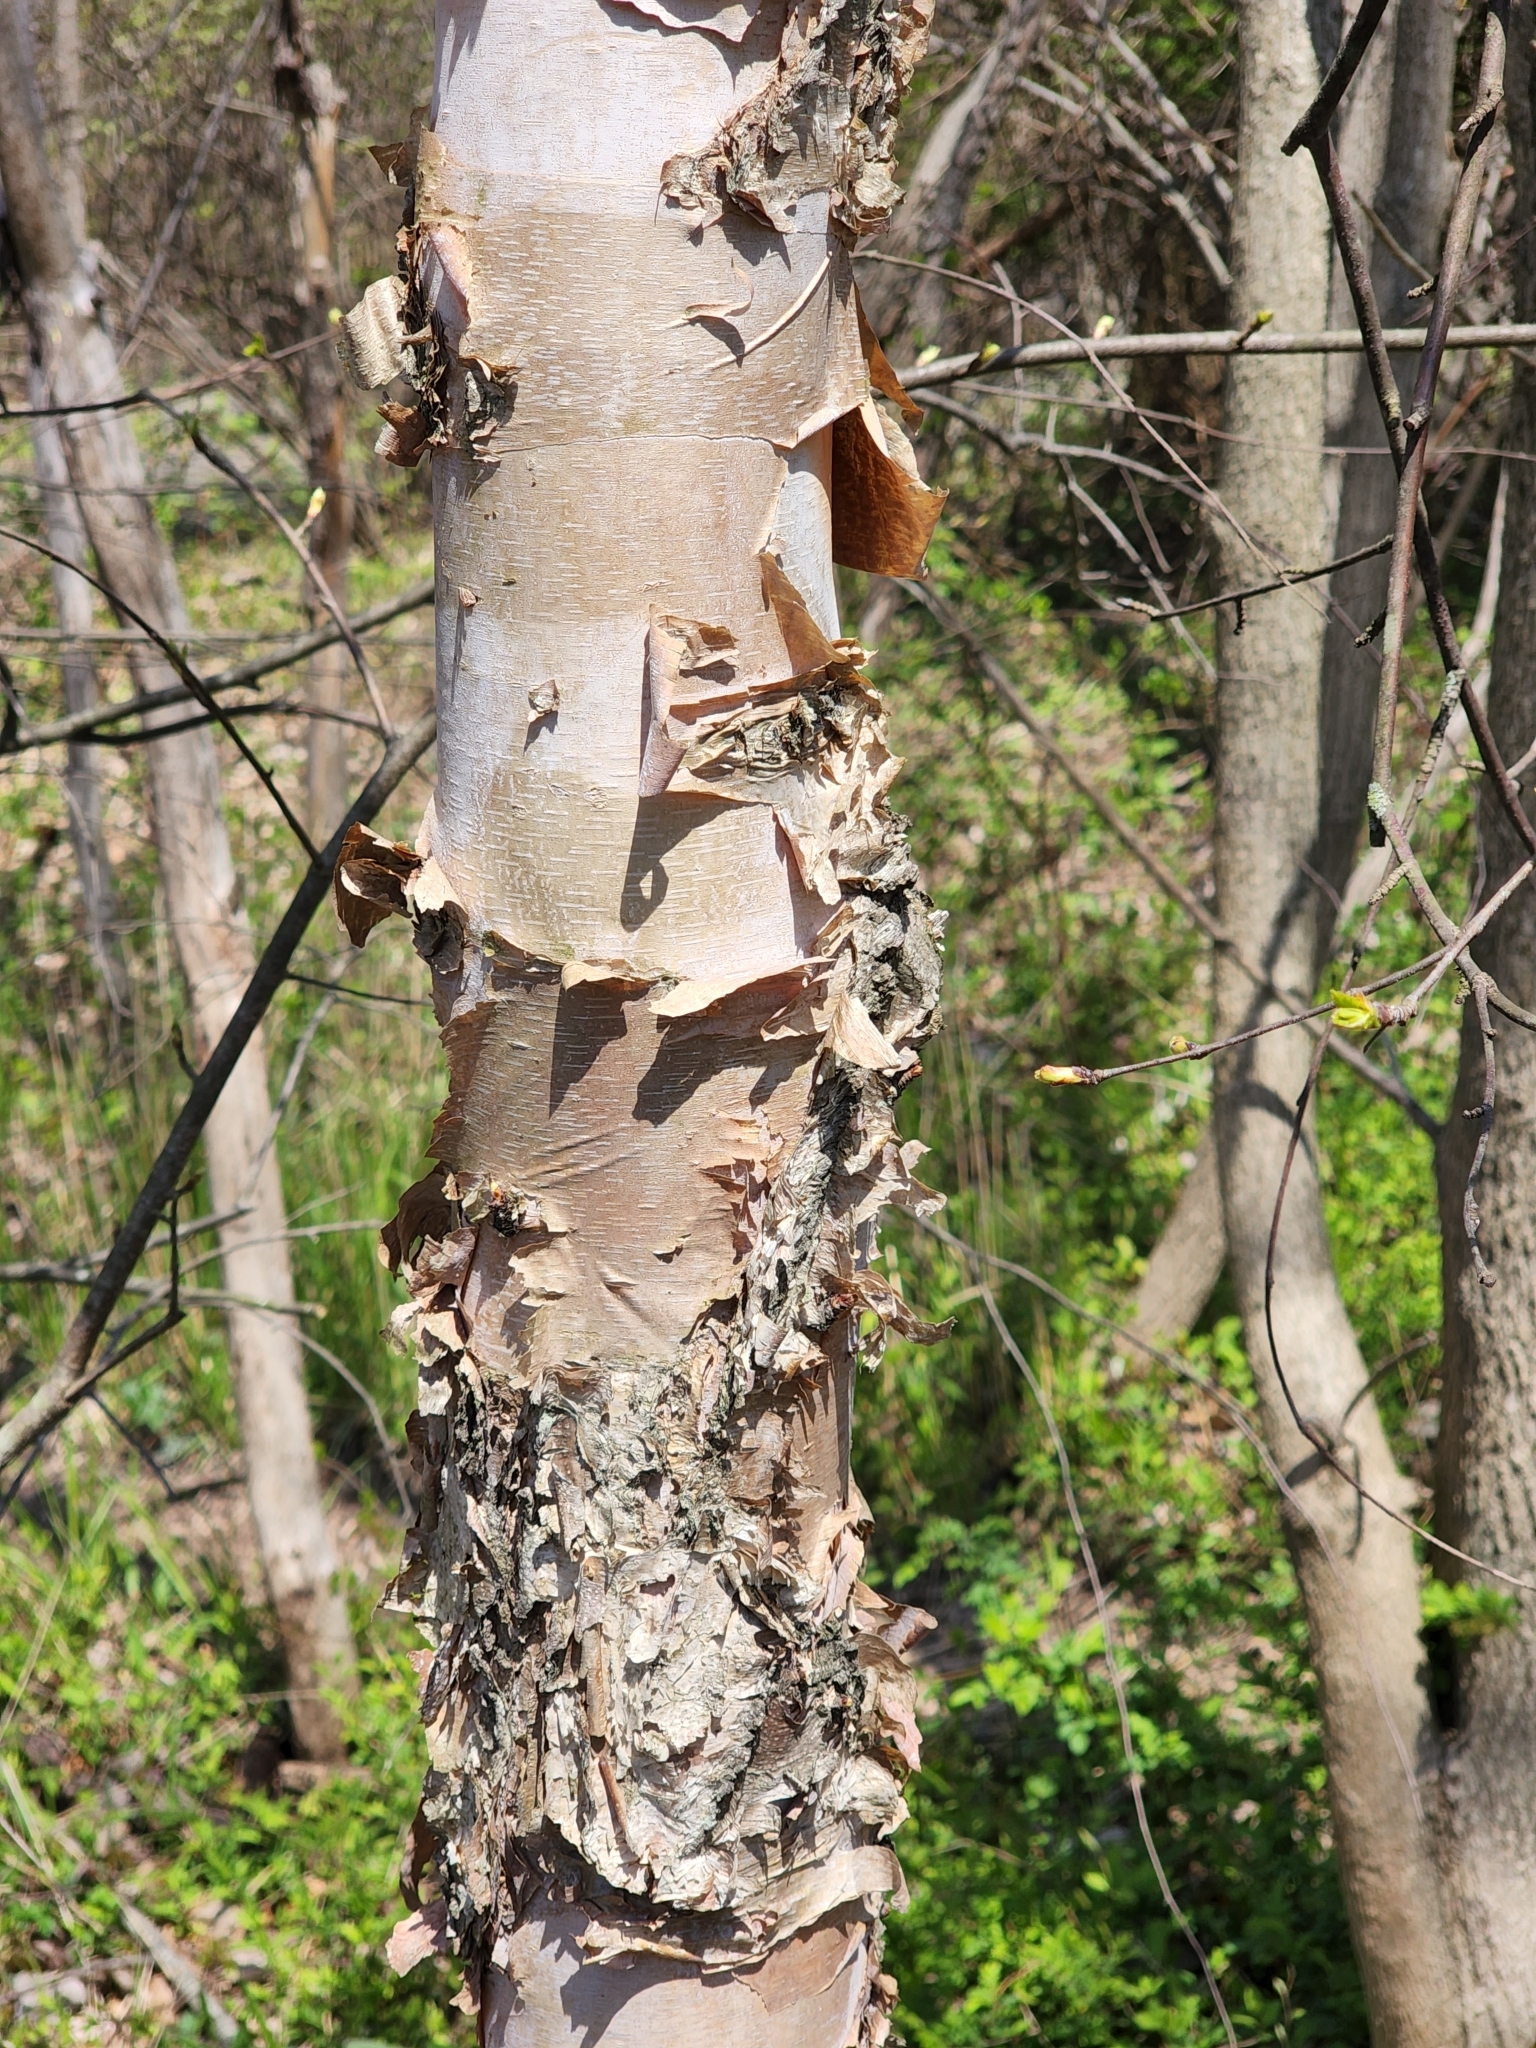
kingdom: Plantae
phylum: Tracheophyta
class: Magnoliopsida
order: Fagales
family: Betulaceae
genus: Betula
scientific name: Betula nigra
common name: Black birch
